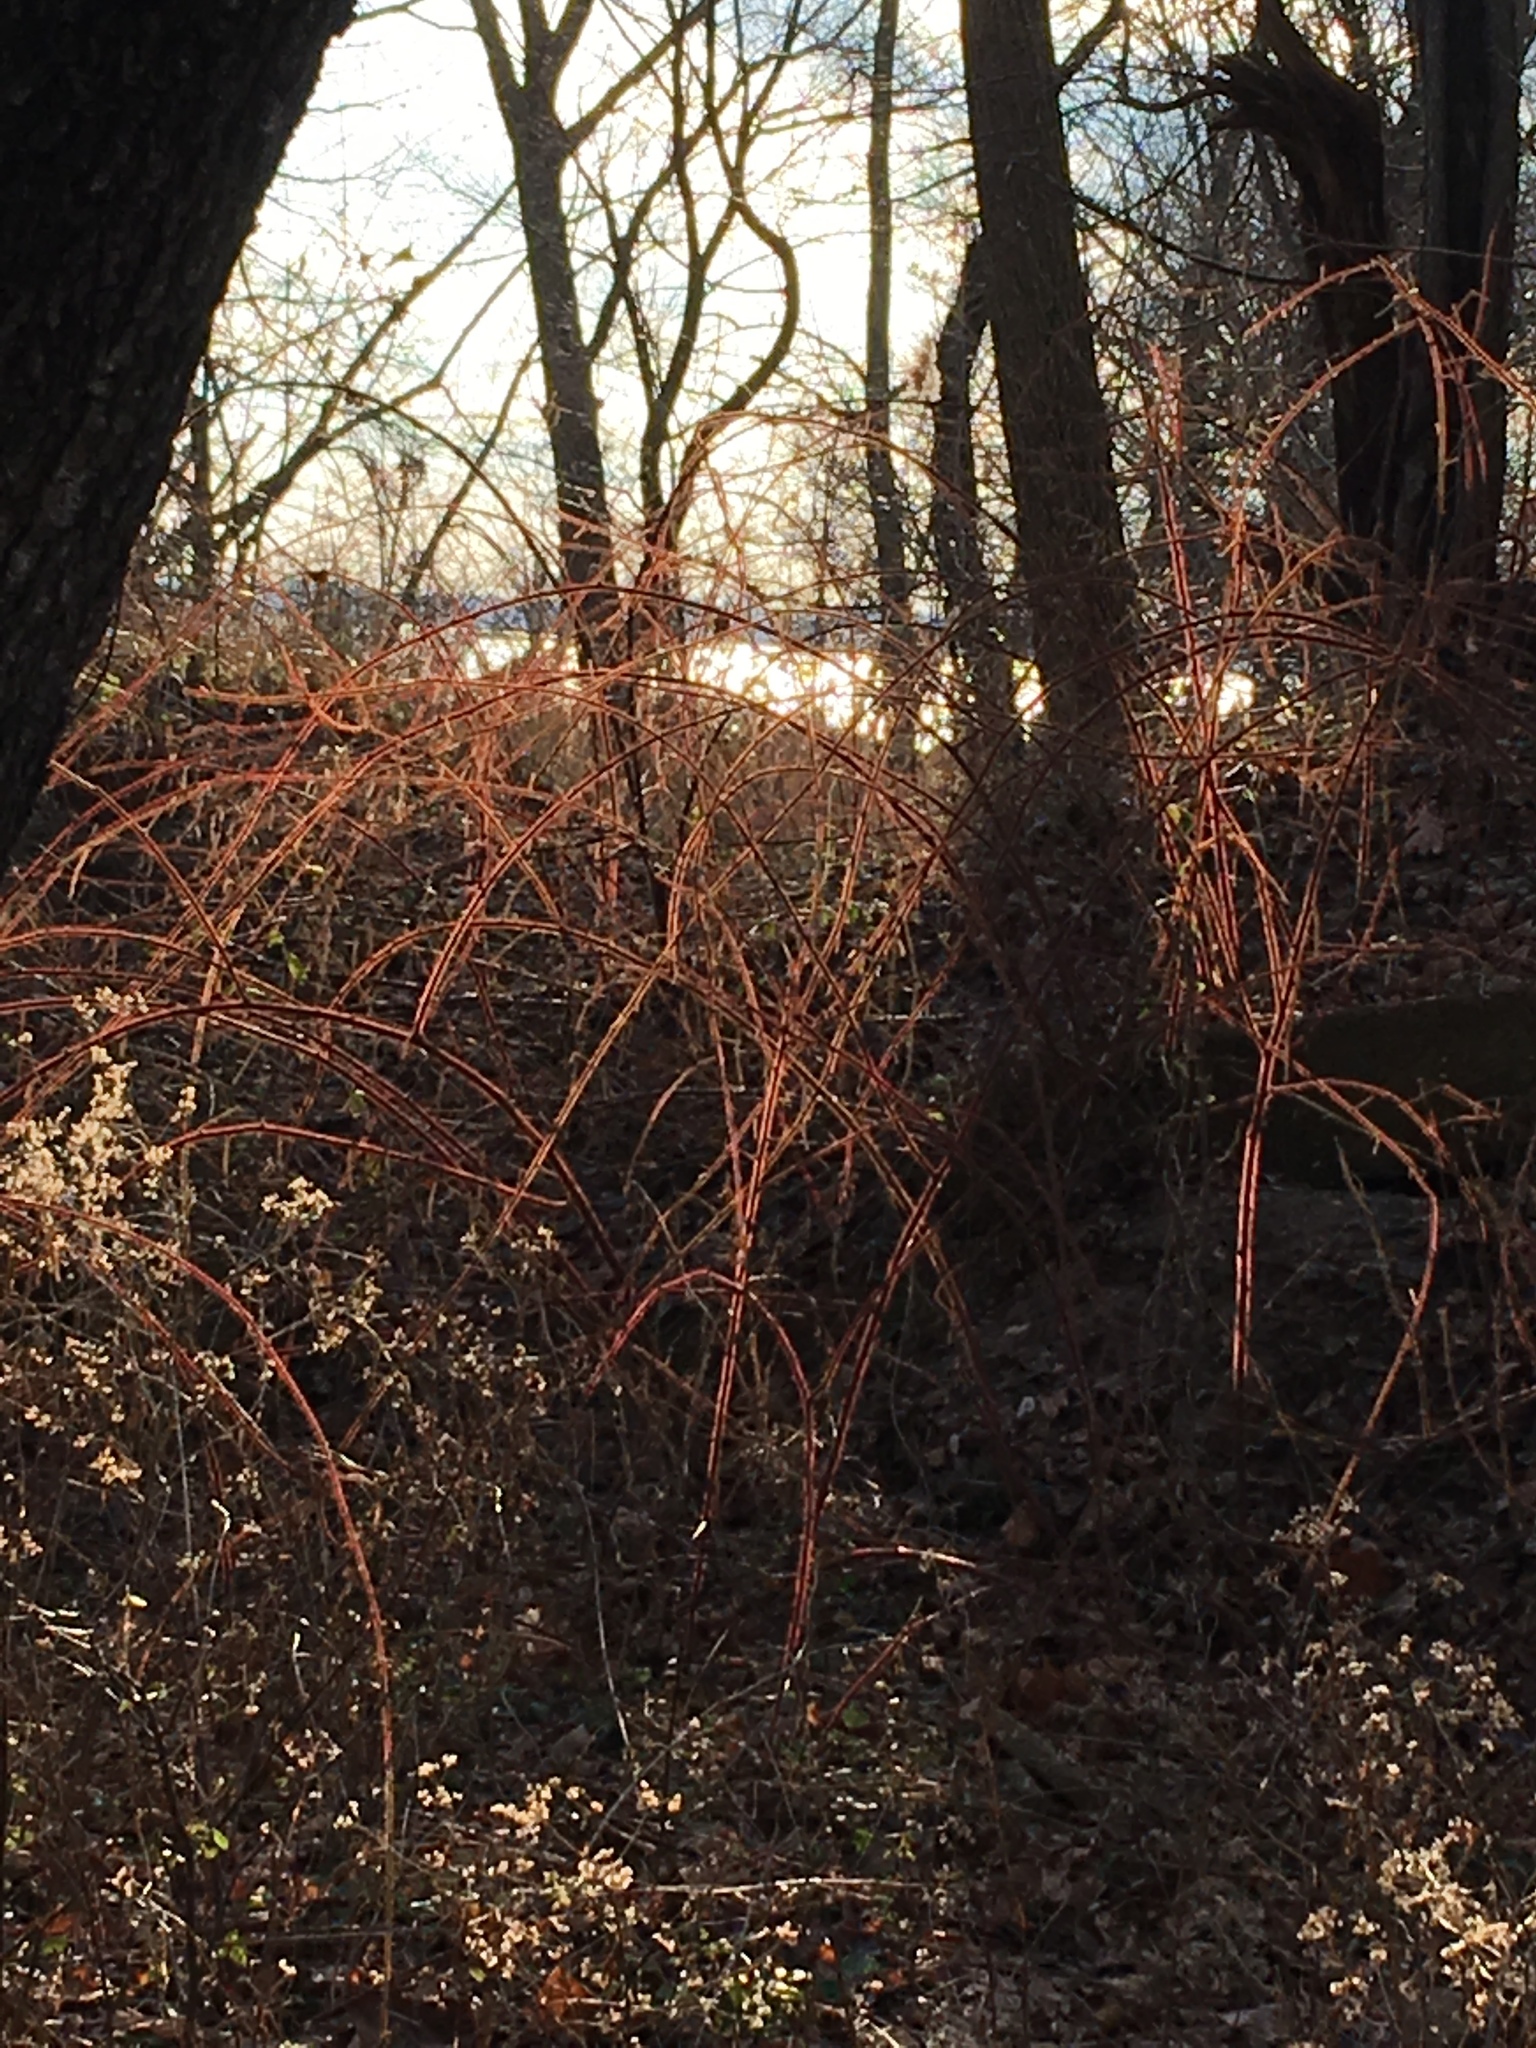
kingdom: Plantae
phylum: Tracheophyta
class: Magnoliopsida
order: Rosales
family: Rosaceae
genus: Rubus
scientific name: Rubus phoenicolasius
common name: Japanese wineberry
